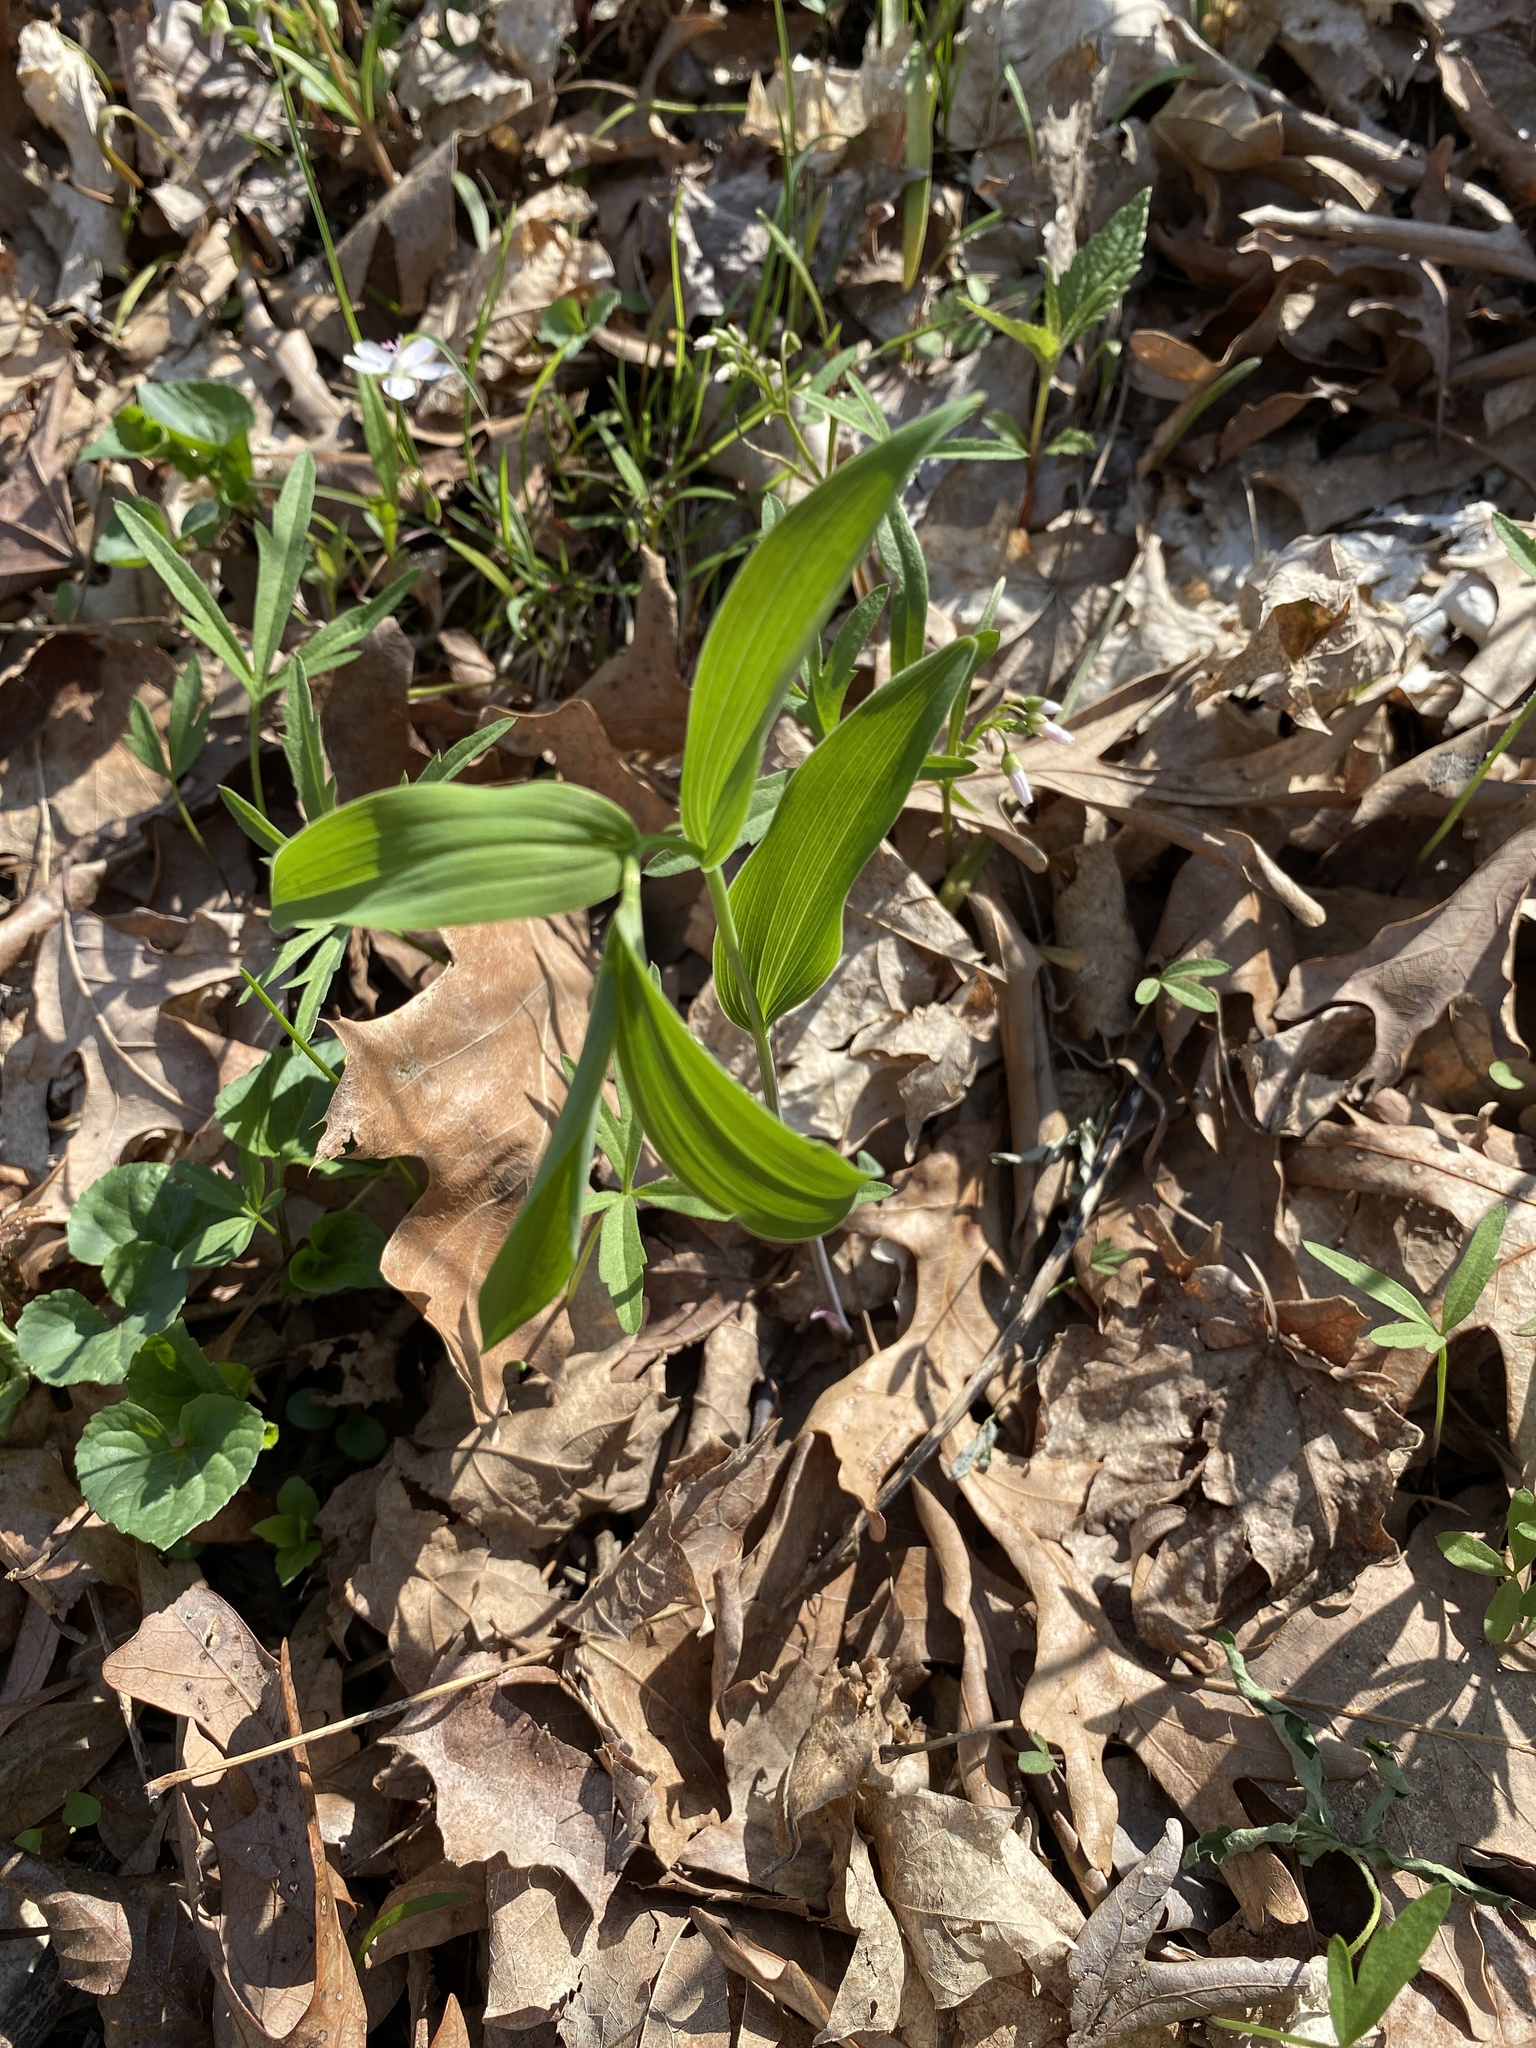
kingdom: Plantae
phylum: Tracheophyta
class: Liliopsida
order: Asparagales
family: Asparagaceae
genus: Polygonatum
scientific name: Polygonatum biflorum
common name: American solomon's-seal
